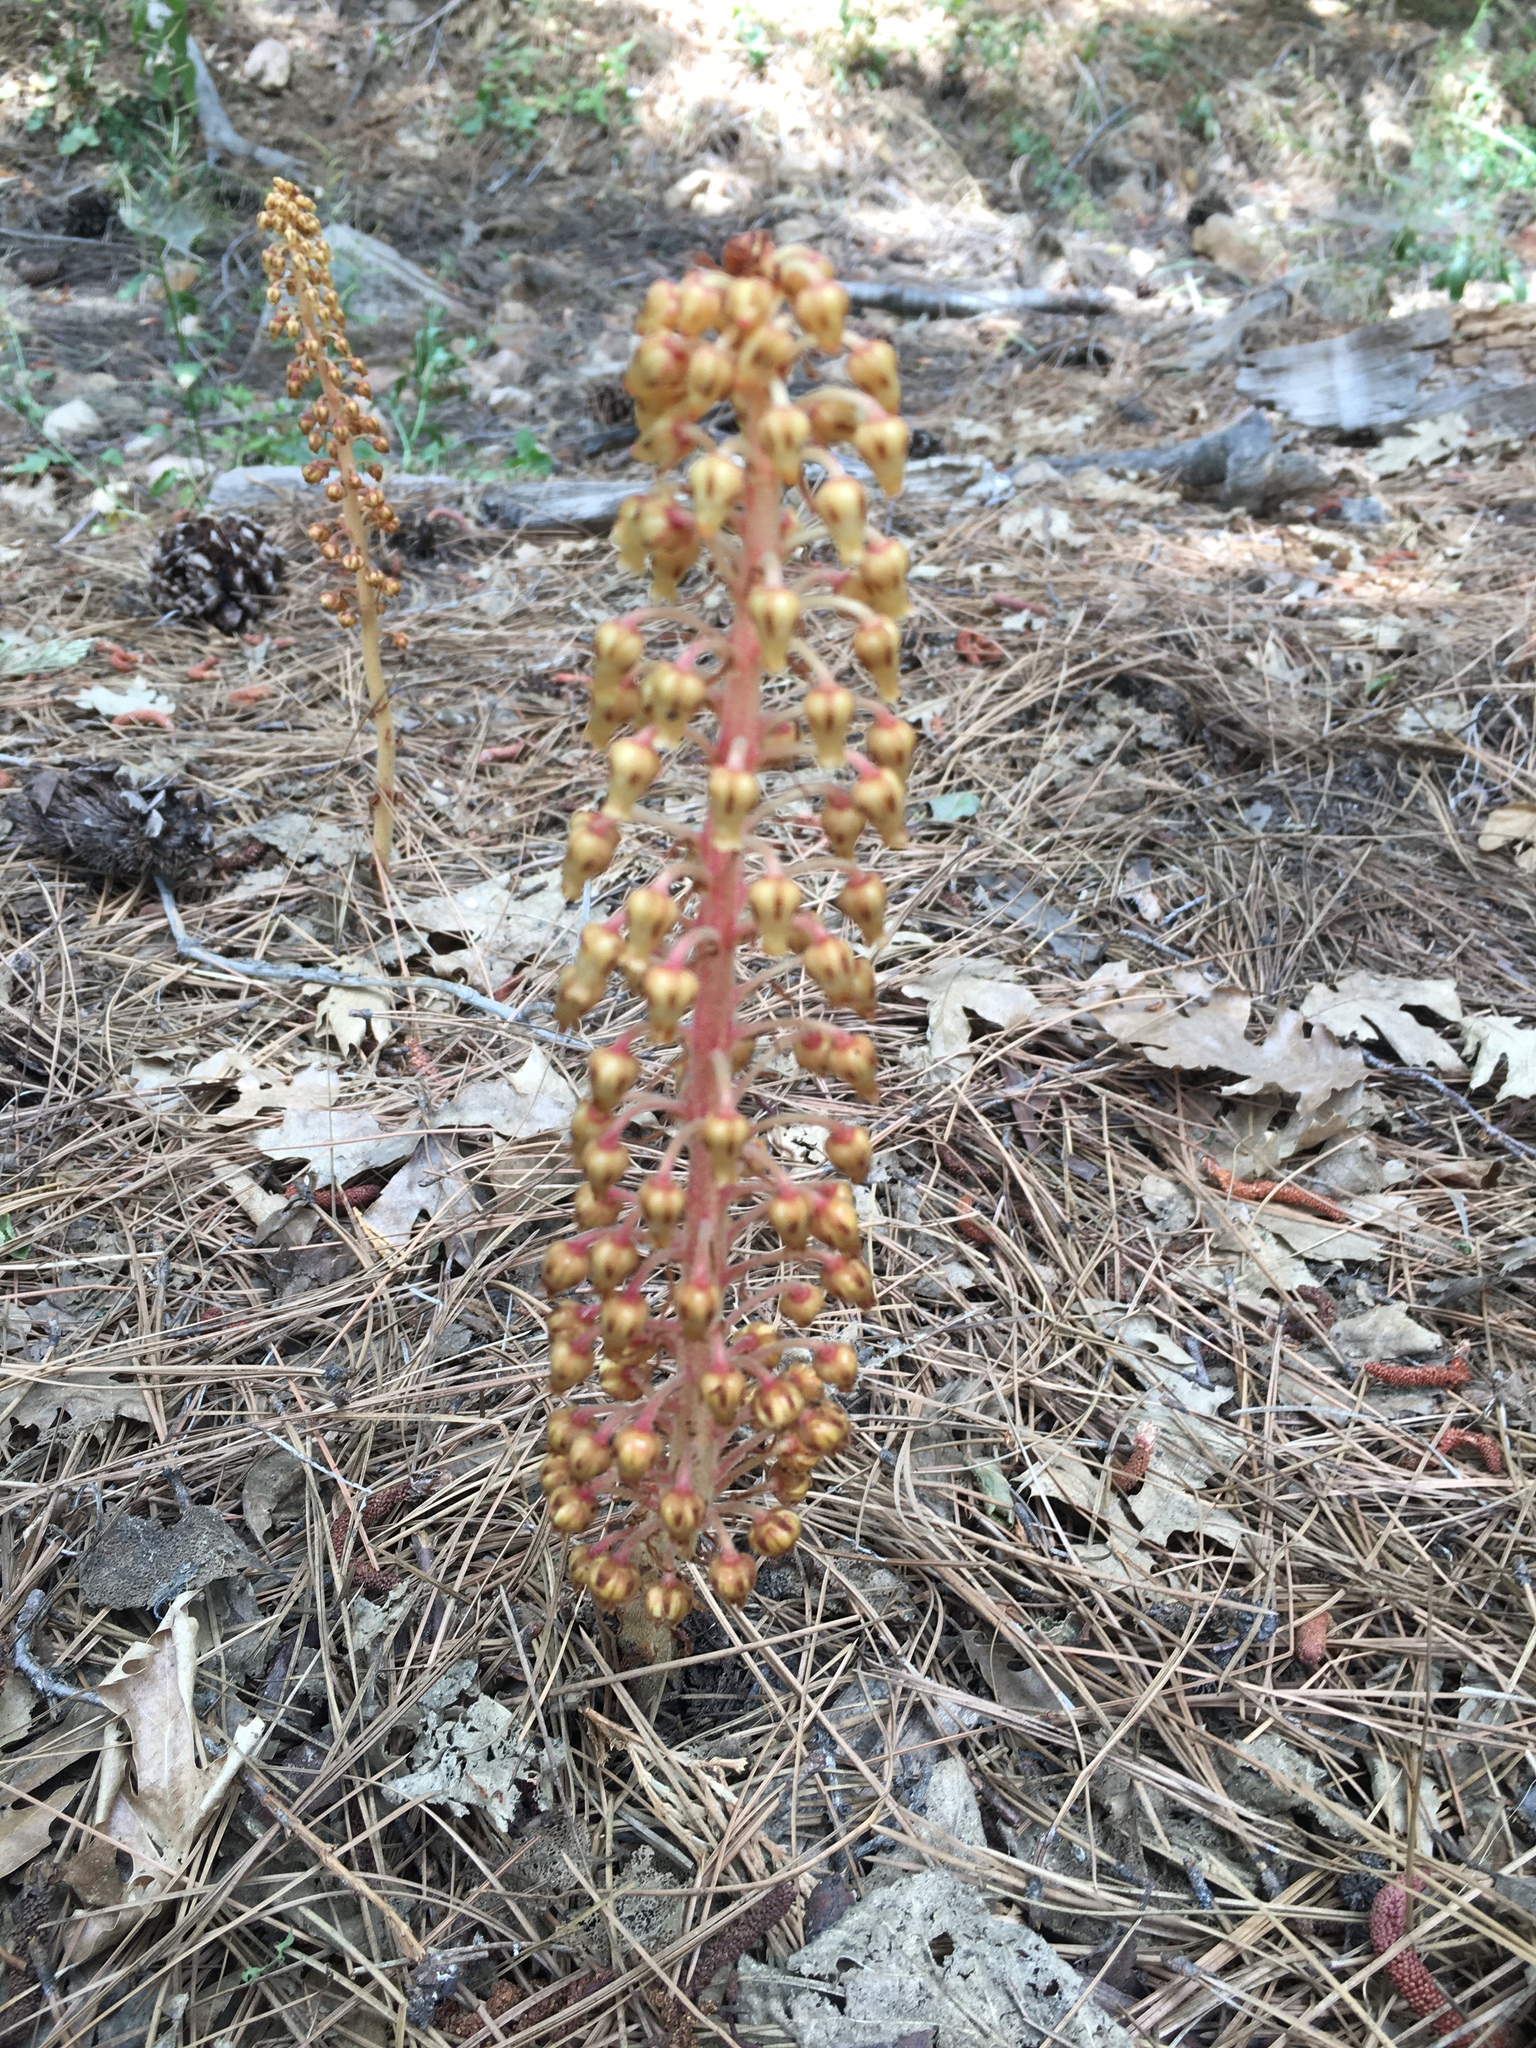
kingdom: Plantae
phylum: Tracheophyta
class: Magnoliopsida
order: Ericales
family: Ericaceae
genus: Pterospora
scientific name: Pterospora andromedea
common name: Giant bird's-nest
